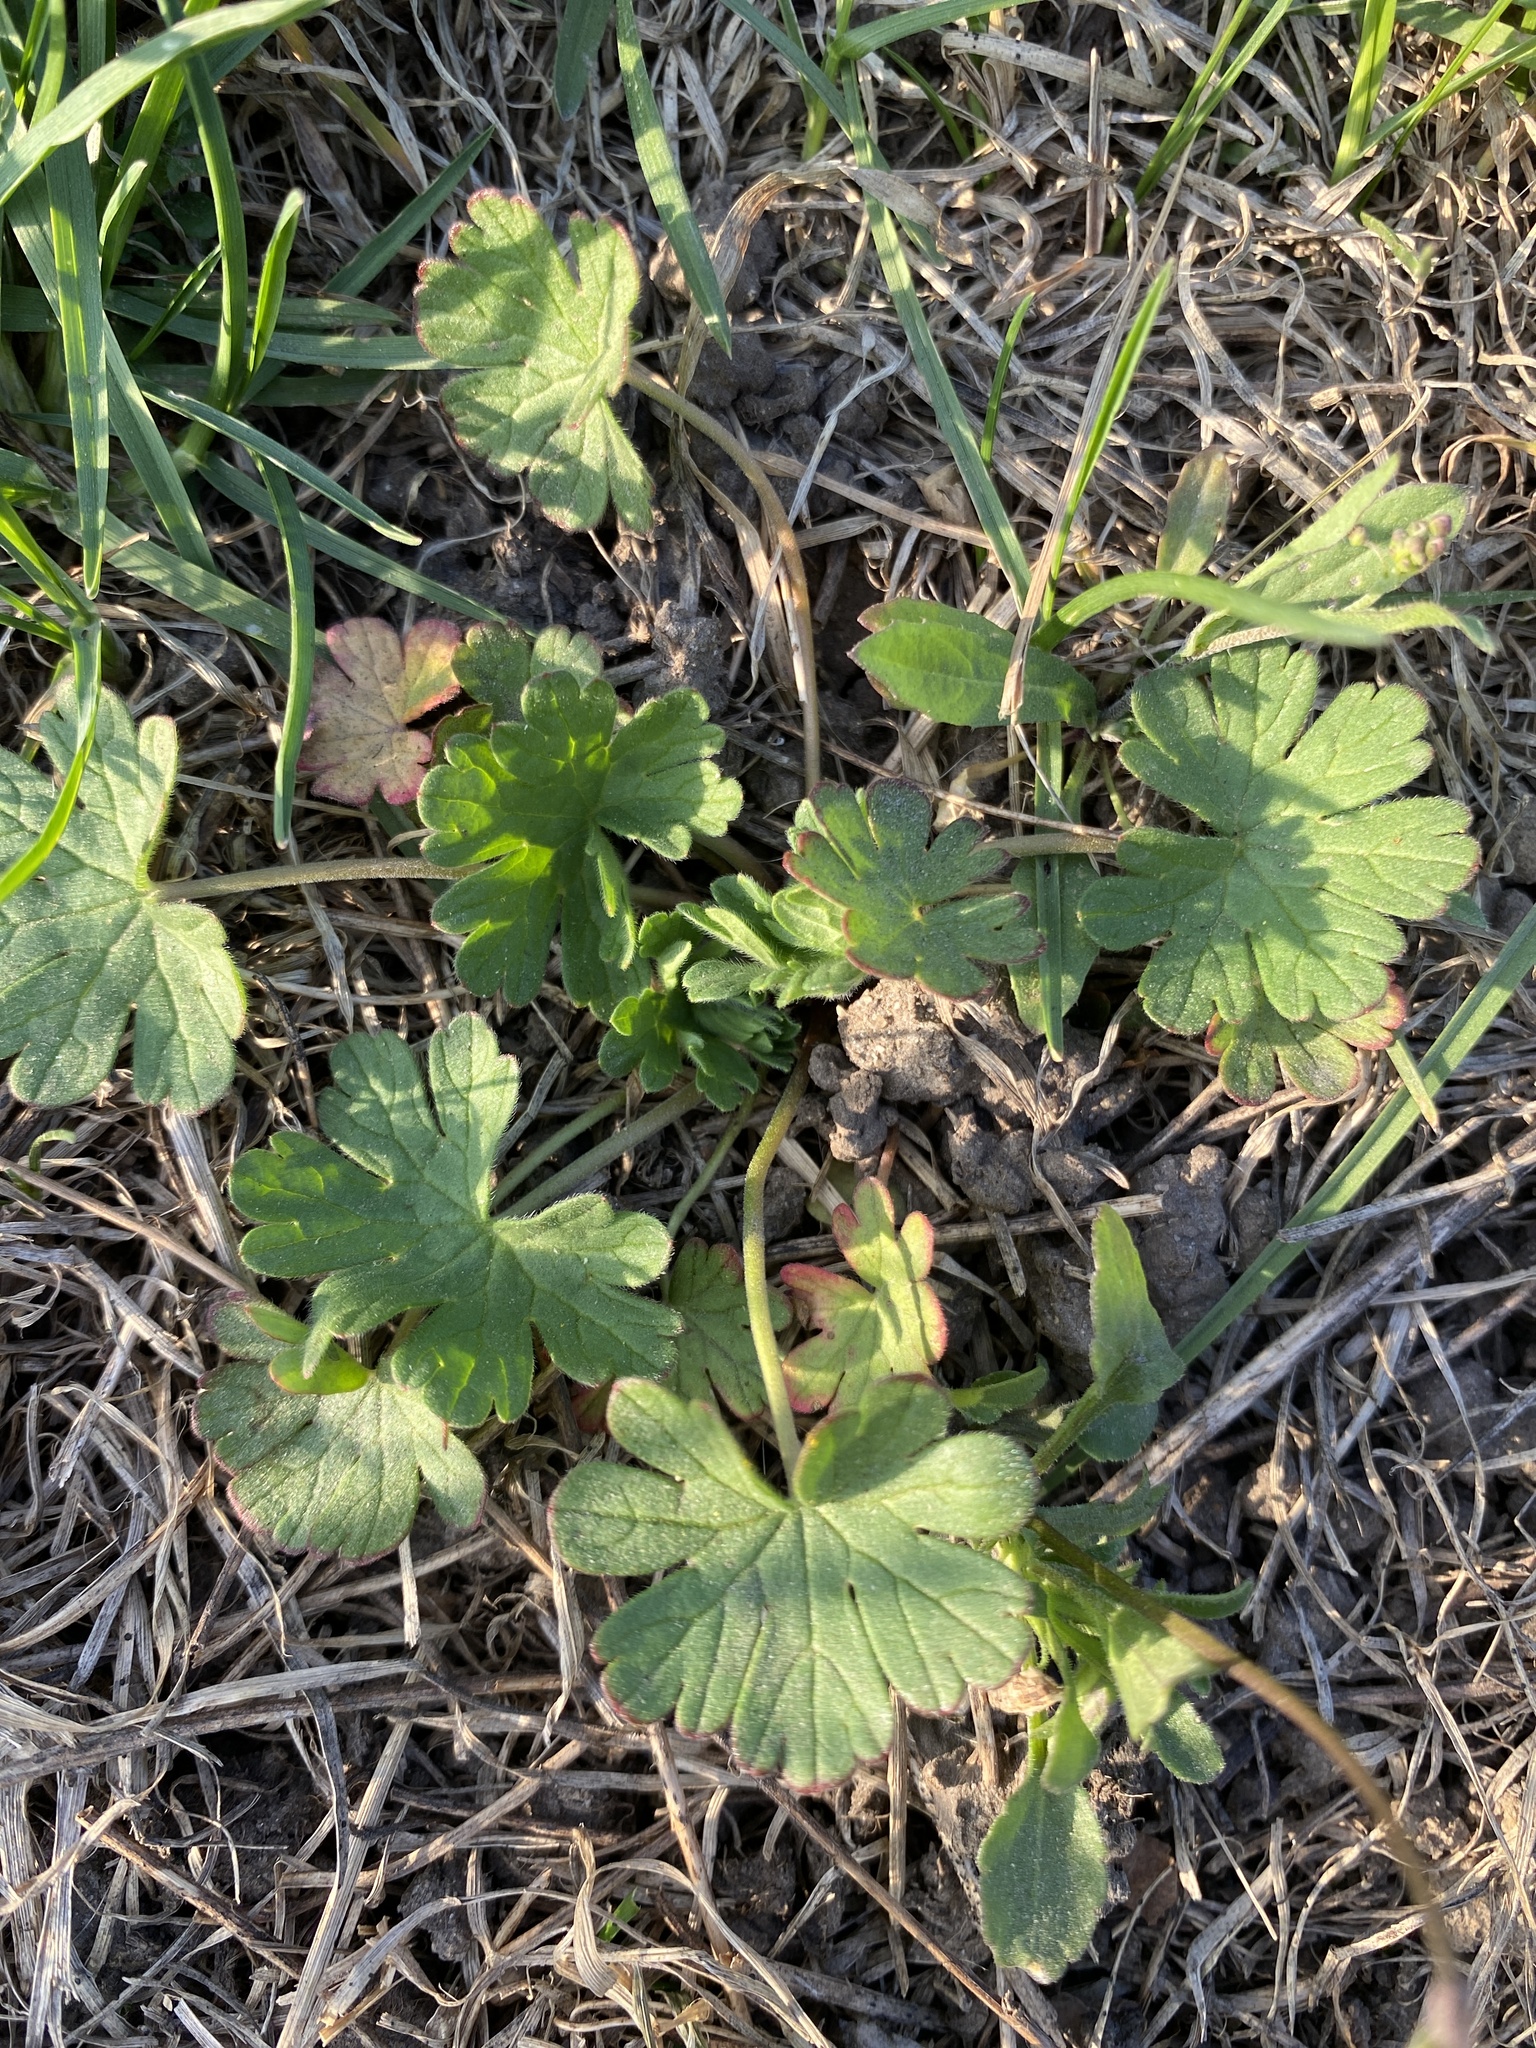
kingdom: Plantae
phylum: Tracheophyta
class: Magnoliopsida
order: Geraniales
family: Geraniaceae
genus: Geranium
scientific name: Geranium pusillum
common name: Small geranium
